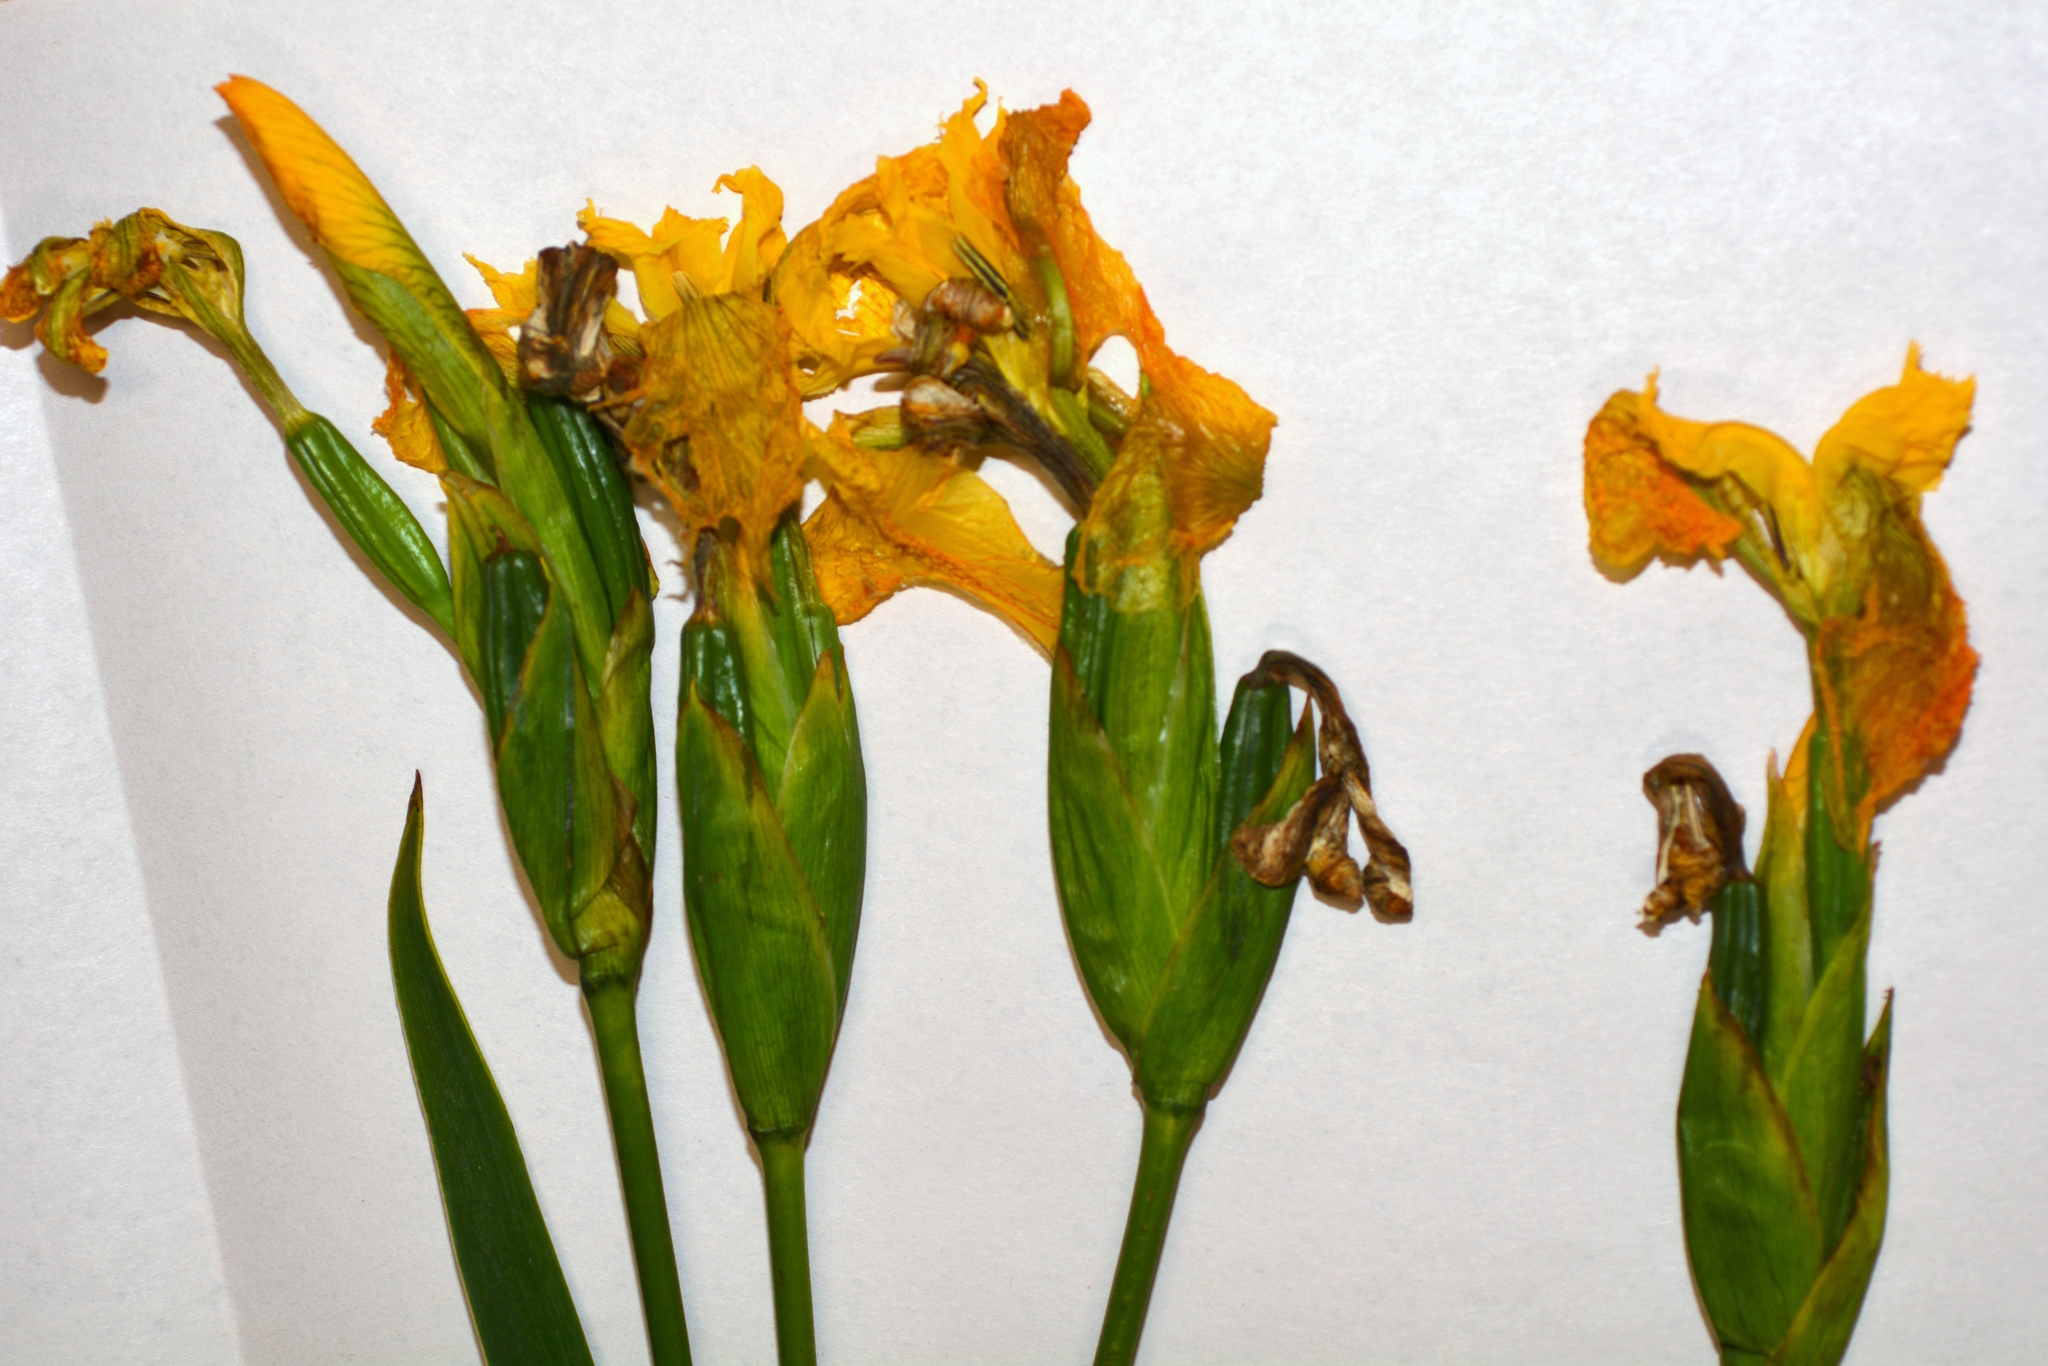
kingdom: Plantae
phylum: Tracheophyta
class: Liliopsida
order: Asparagales
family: Iridaceae
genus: Iris
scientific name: Iris pseudacorus
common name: Yellow flag
